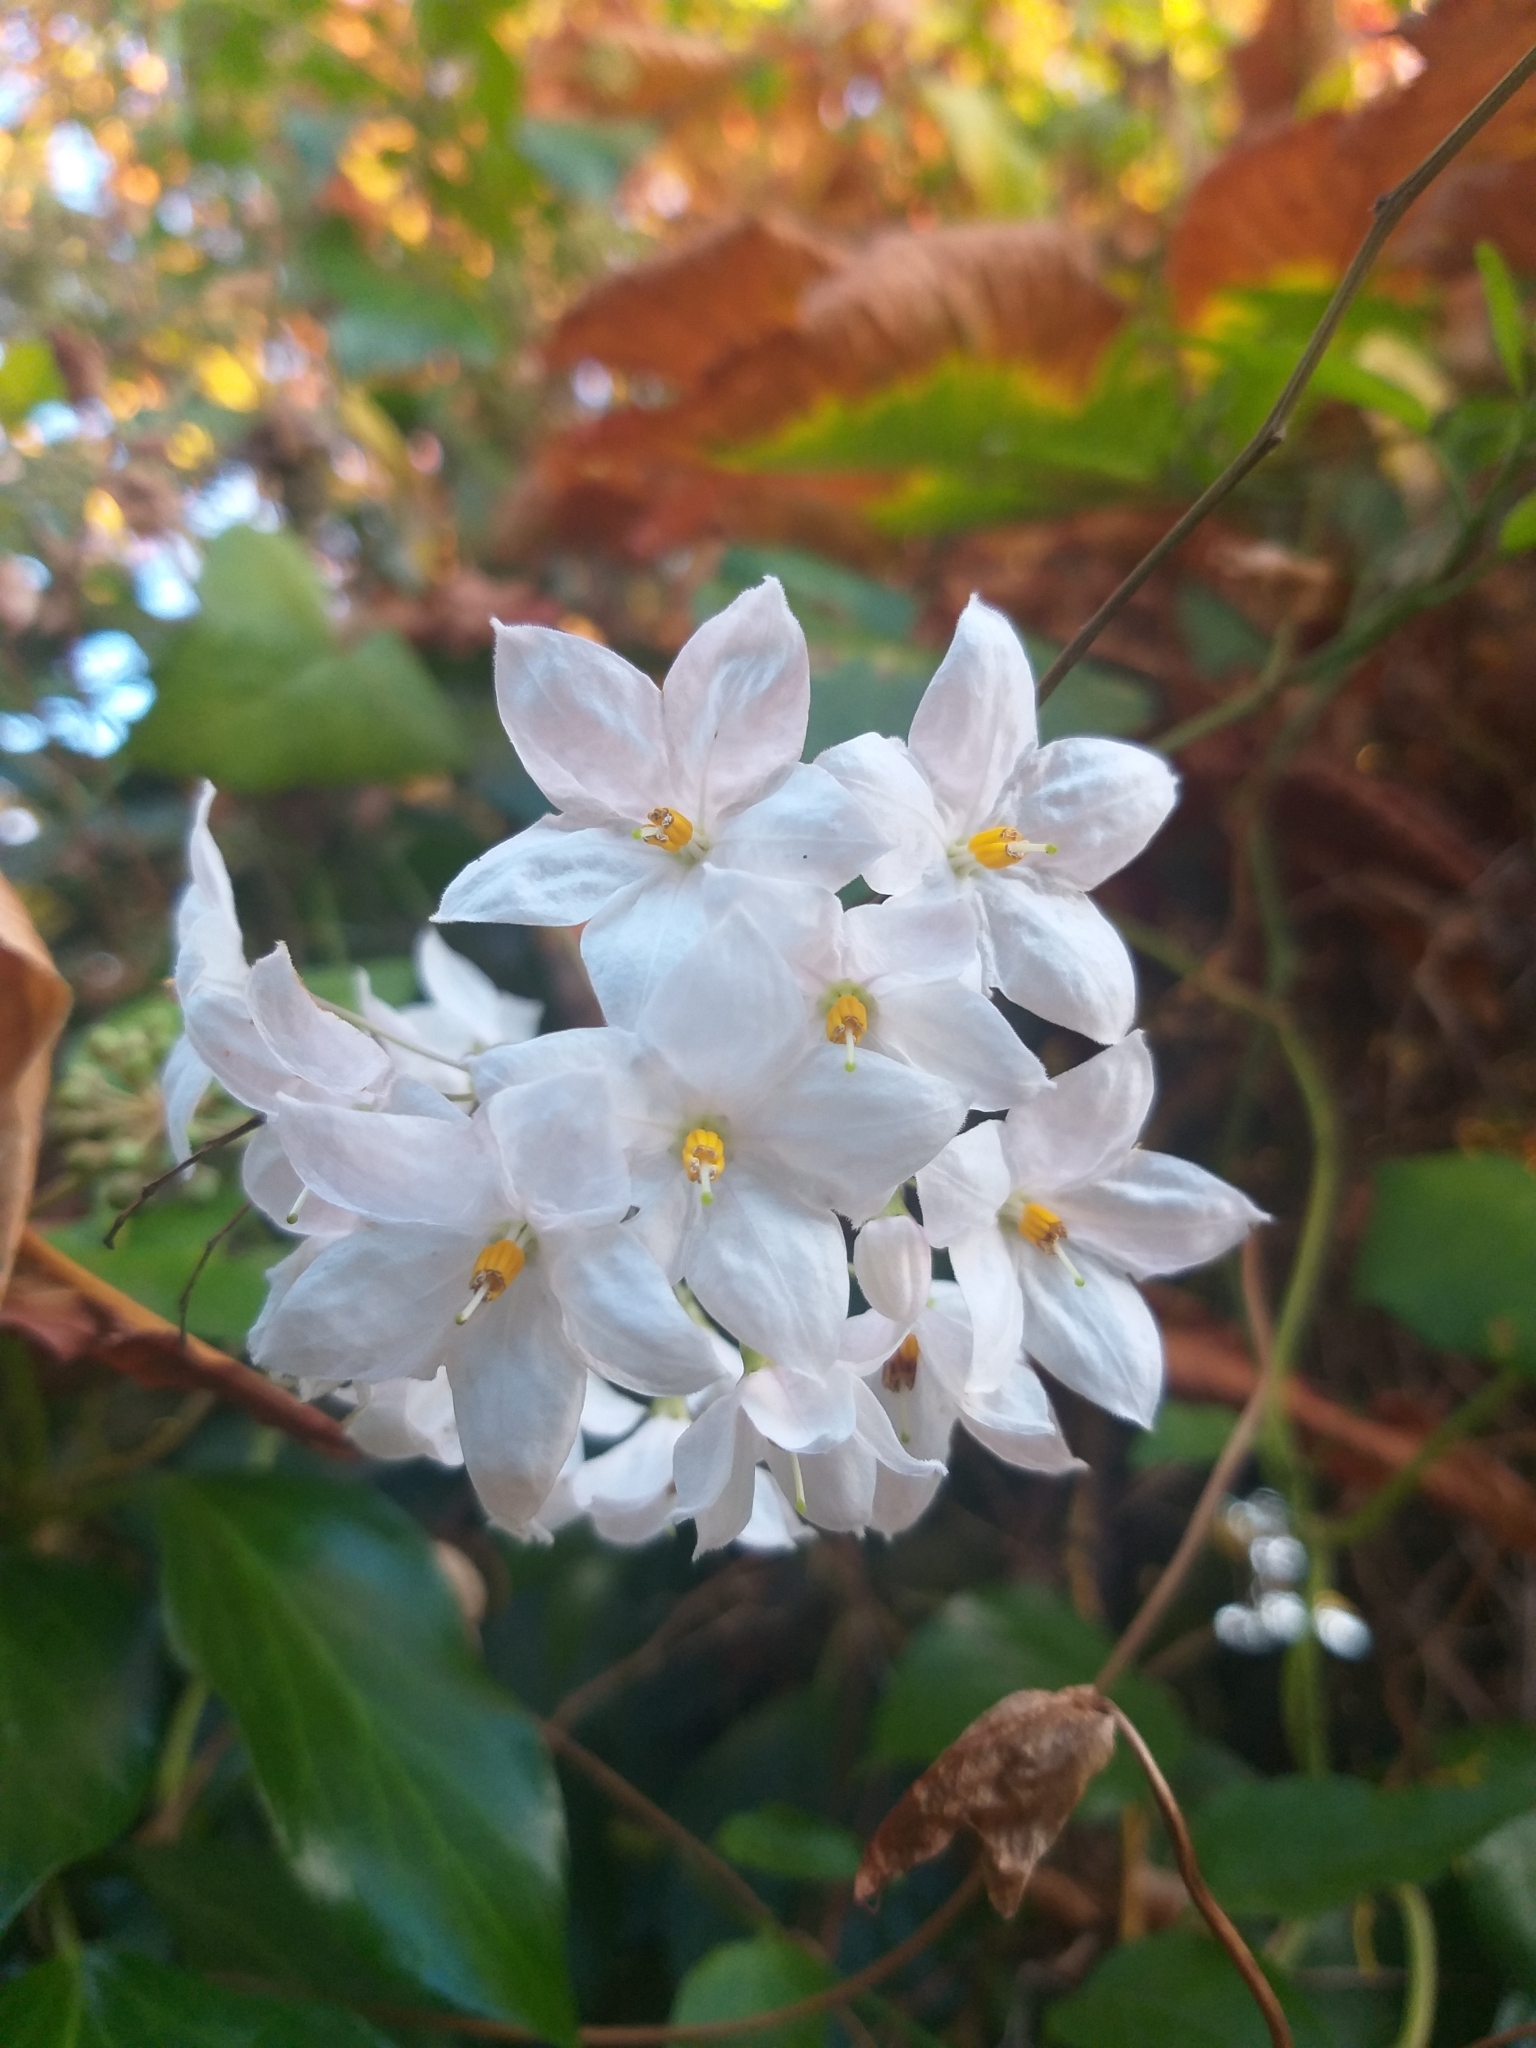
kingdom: Plantae
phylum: Tracheophyta
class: Magnoliopsida
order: Solanales
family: Solanaceae
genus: Solanum
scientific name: Solanum laxum
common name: Nightshade
